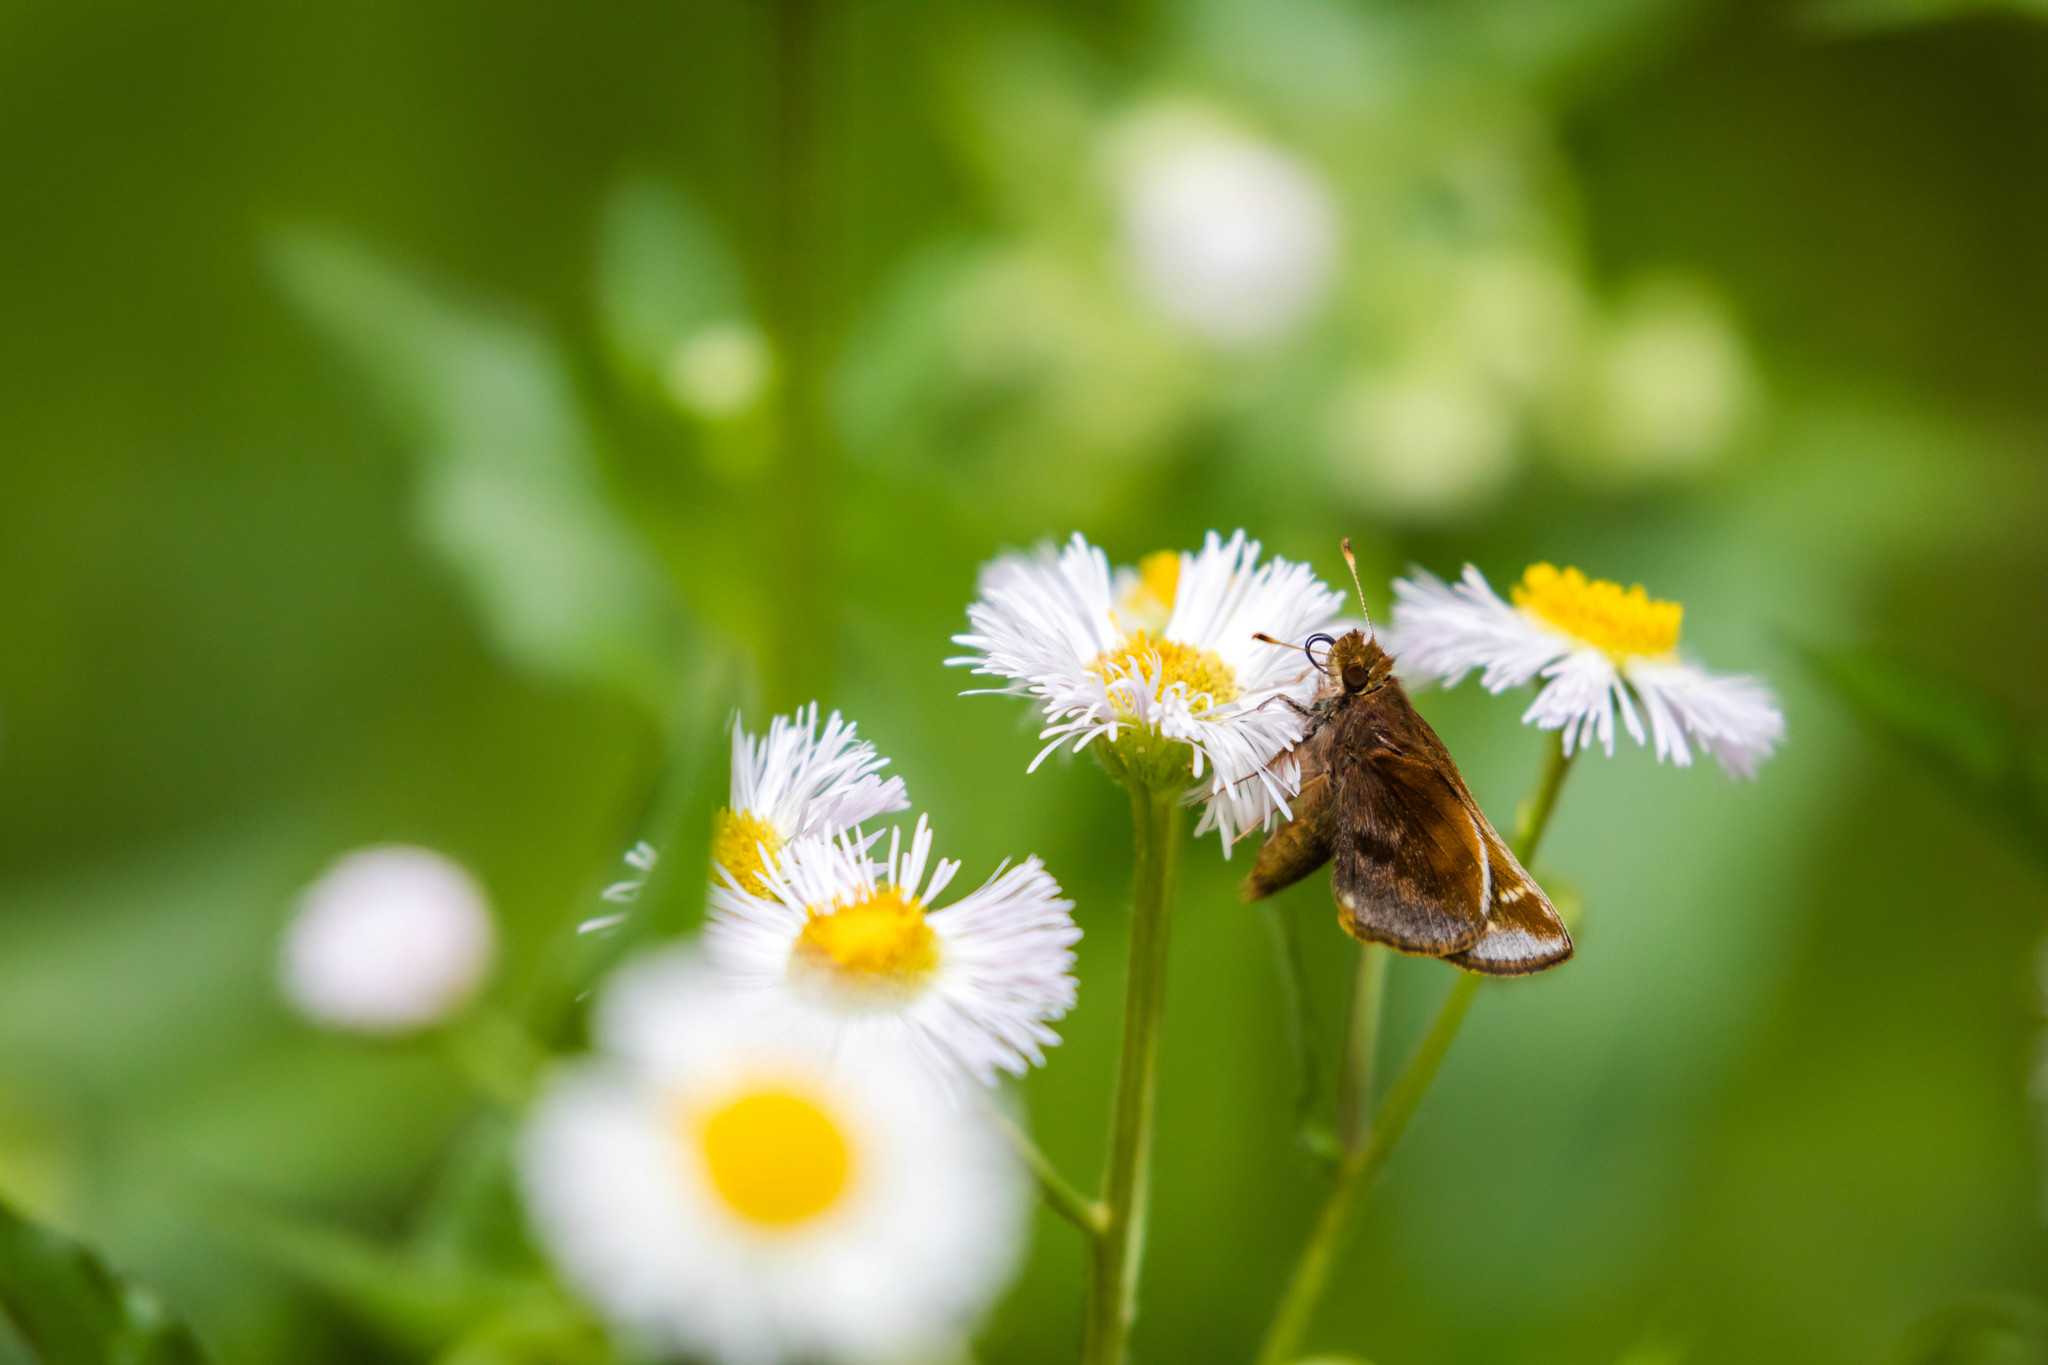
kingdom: Animalia
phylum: Arthropoda
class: Insecta
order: Lepidoptera
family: Hesperiidae
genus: Lon
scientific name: Lon zabulon
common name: Zabulon skipper
